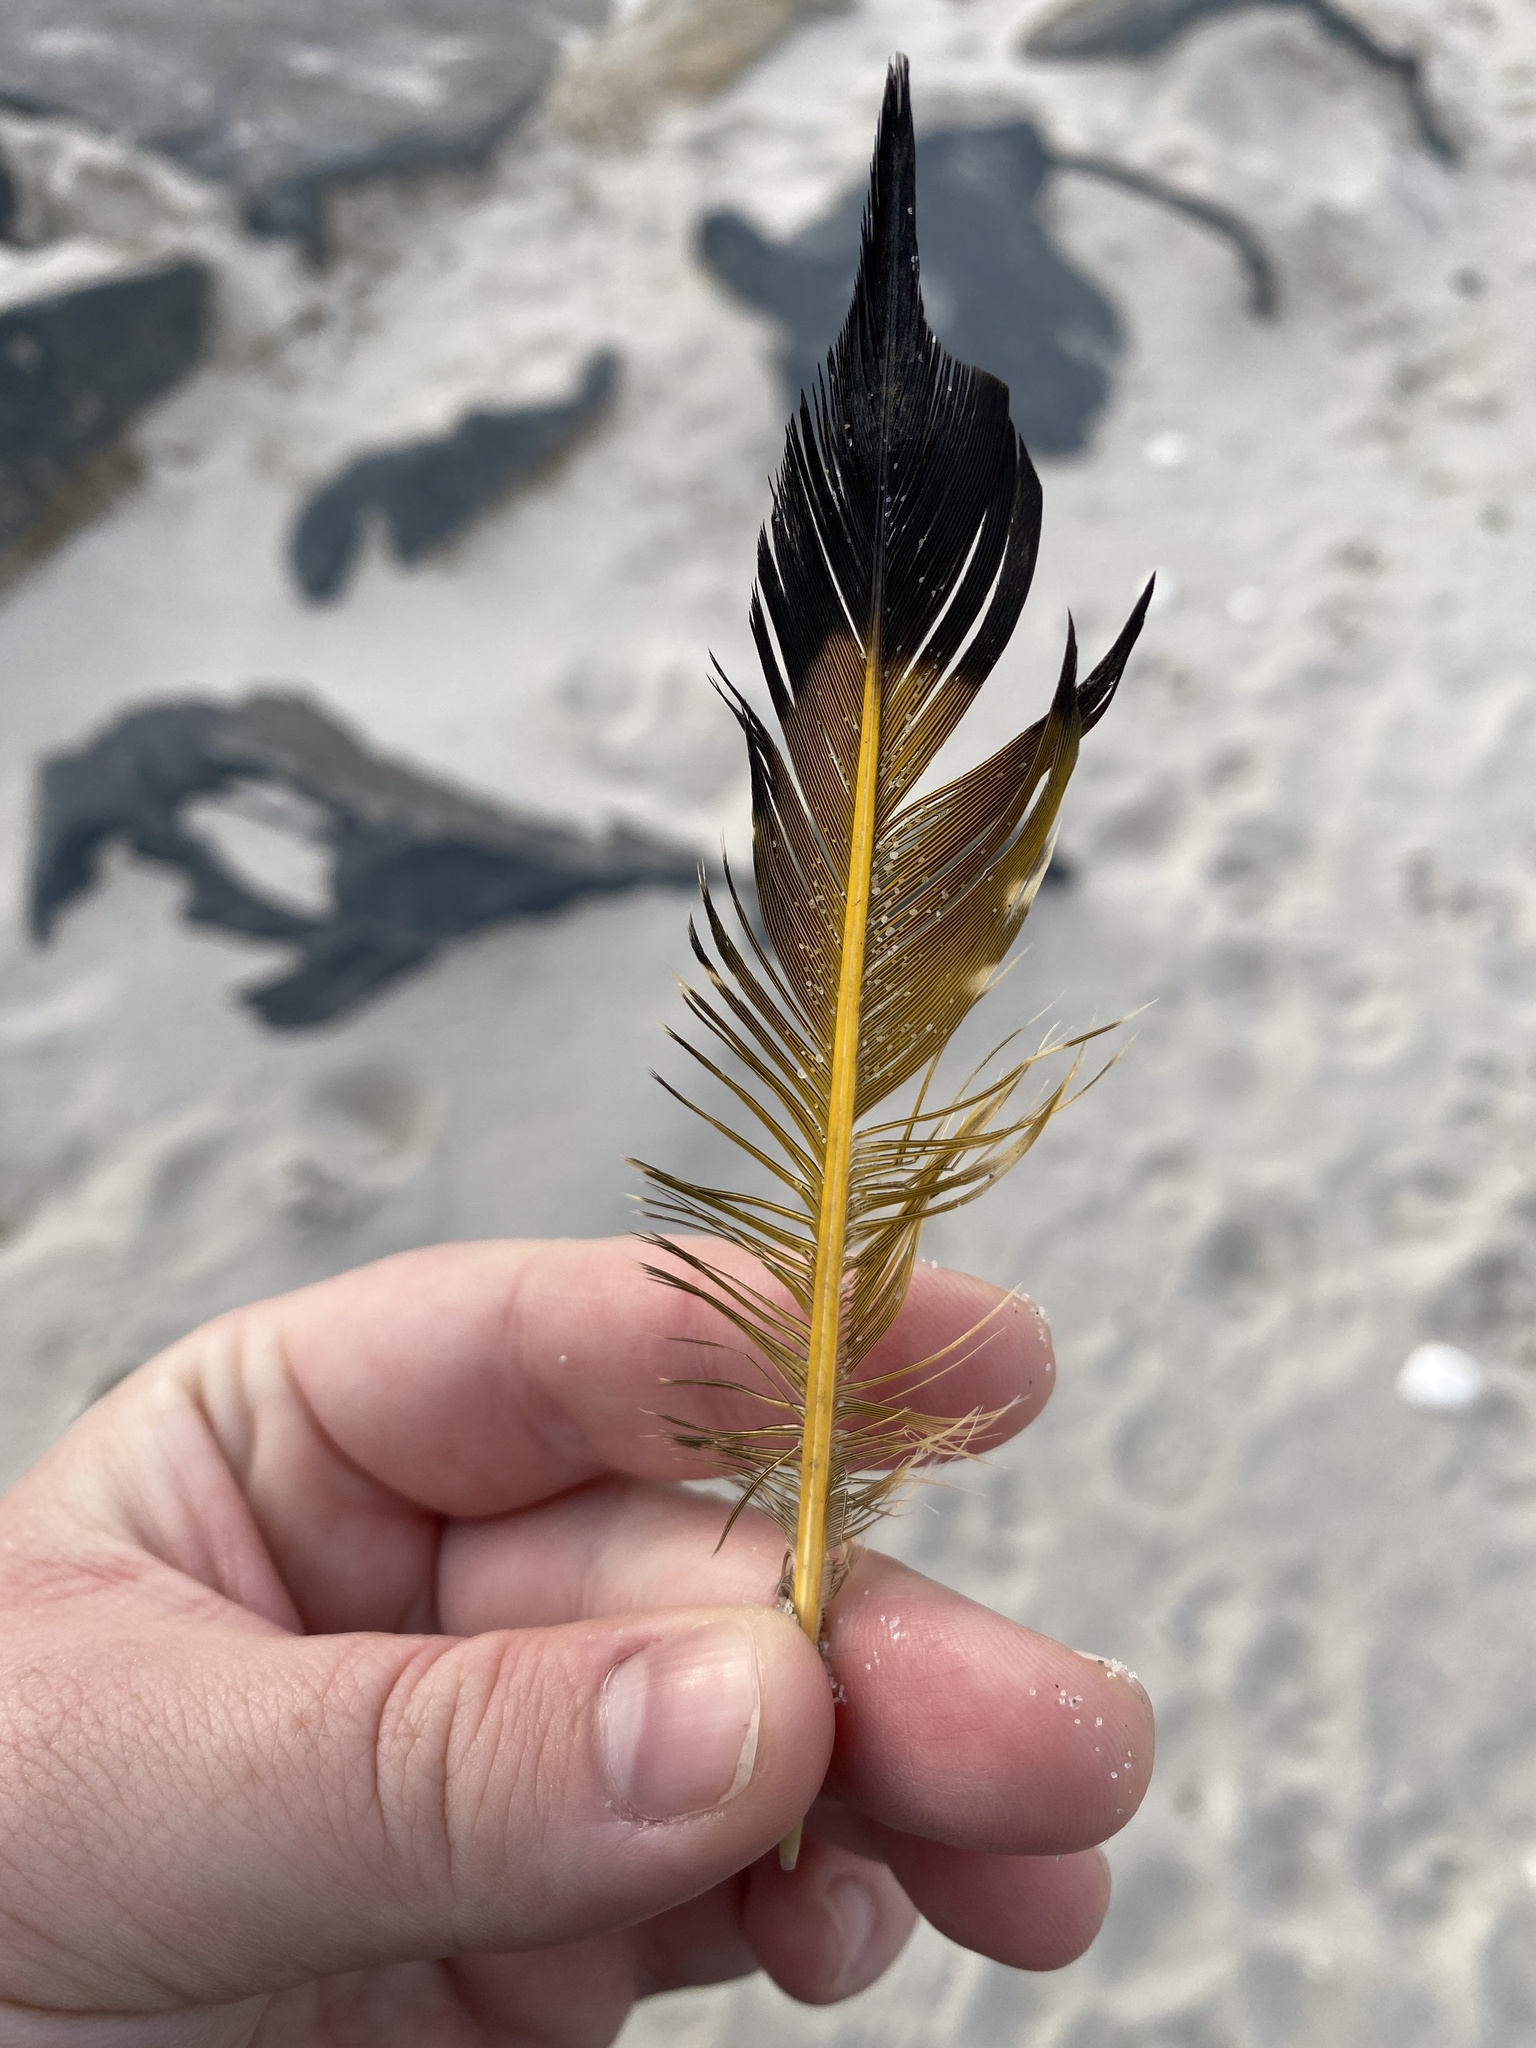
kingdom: Animalia
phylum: Chordata
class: Aves
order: Piciformes
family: Picidae
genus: Colaptes
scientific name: Colaptes auratus
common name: Northern flicker
